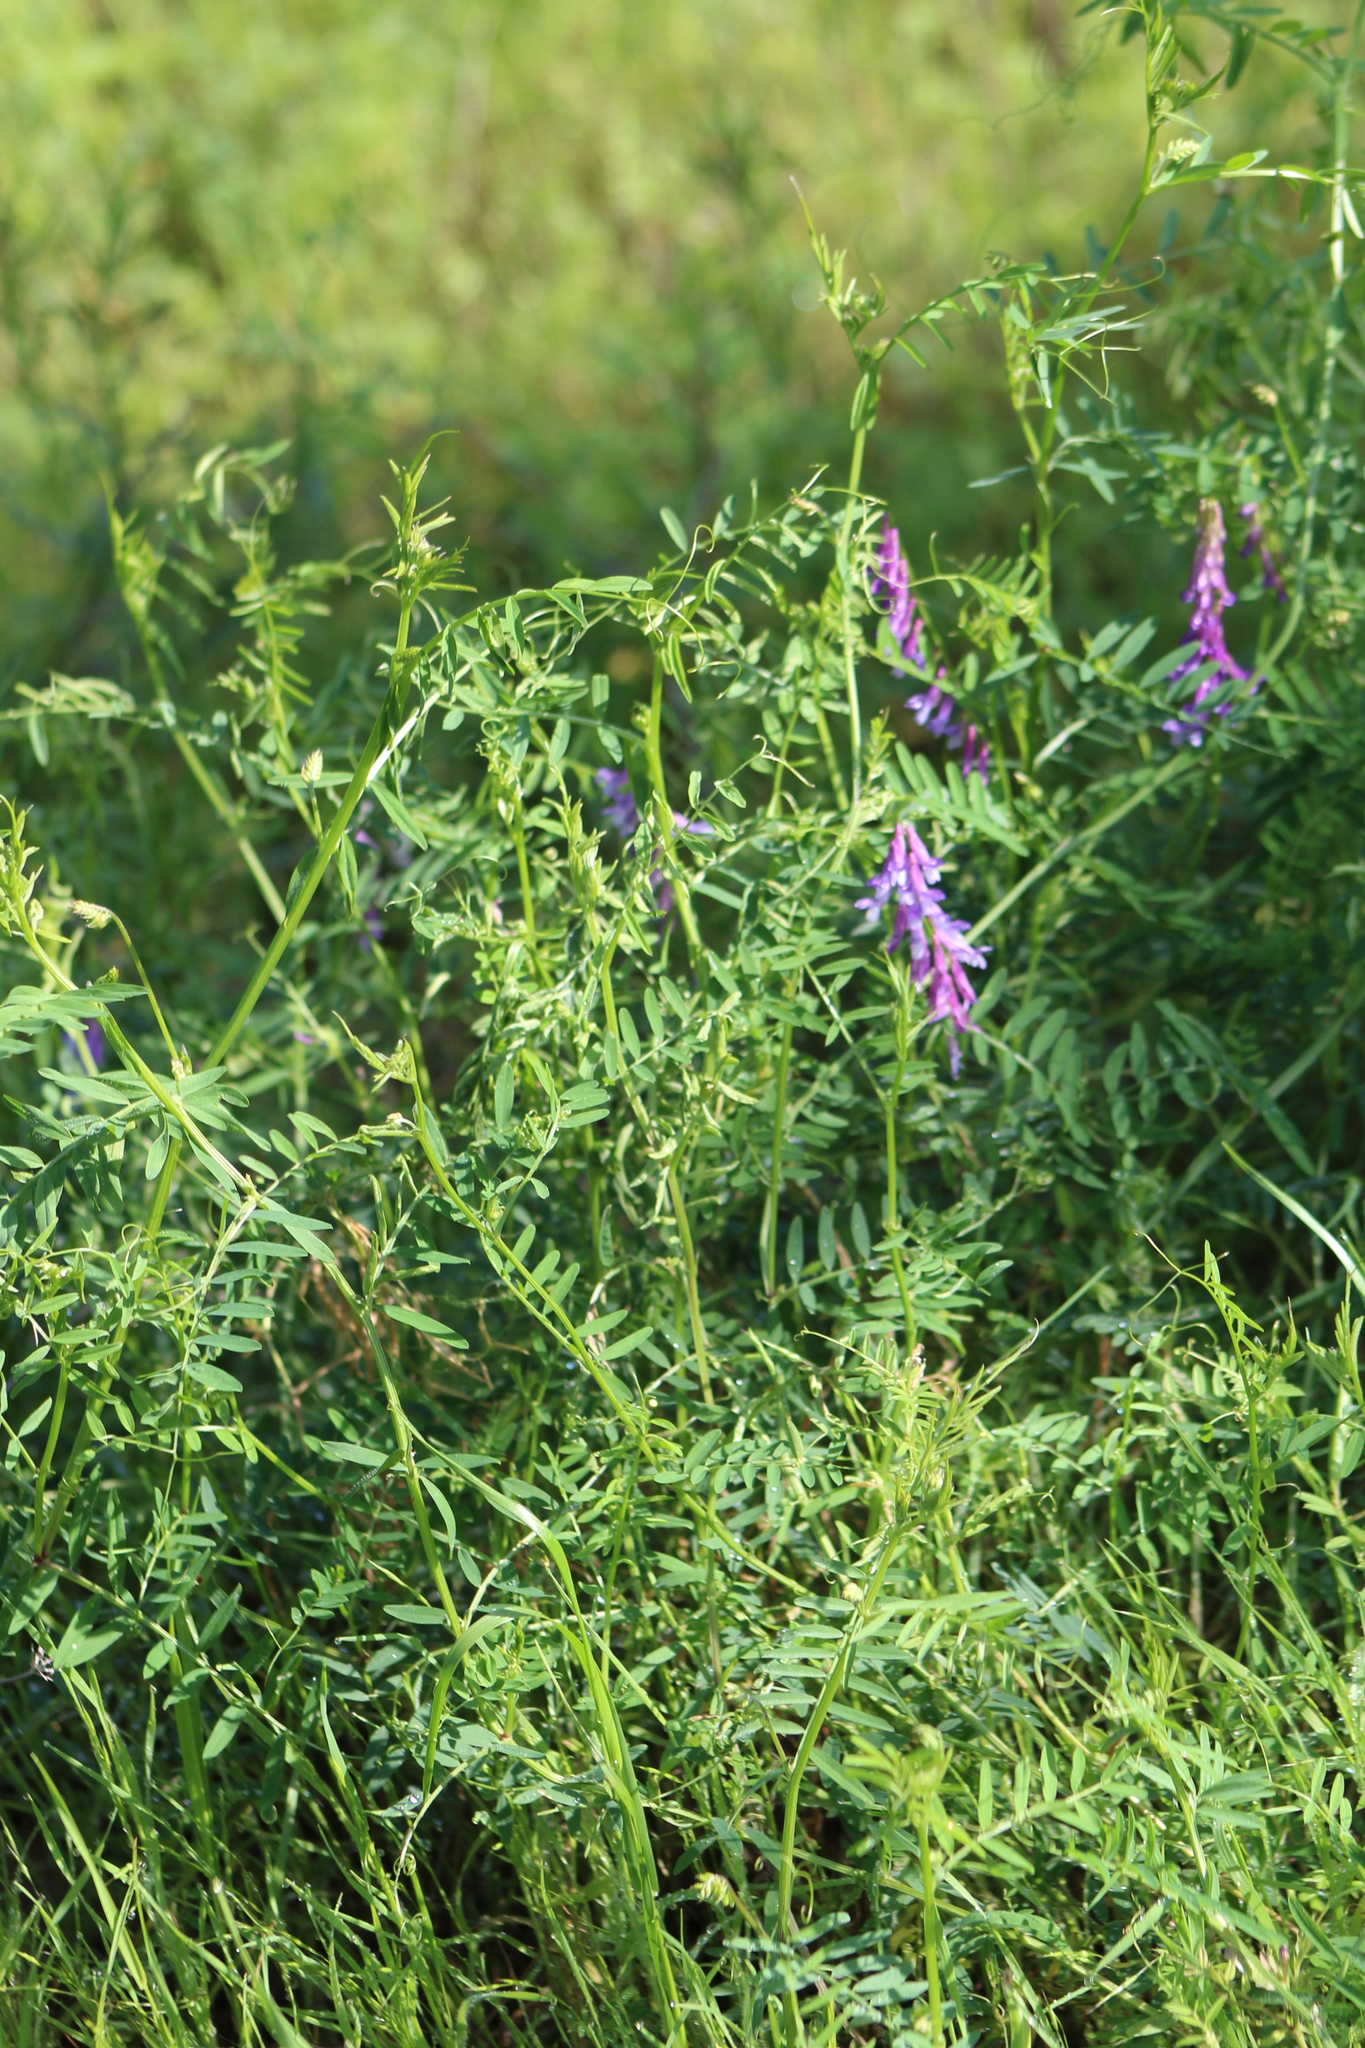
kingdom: Plantae
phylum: Tracheophyta
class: Magnoliopsida
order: Fabales
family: Fabaceae
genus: Vicia
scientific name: Vicia villosa
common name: Fodder vetch
